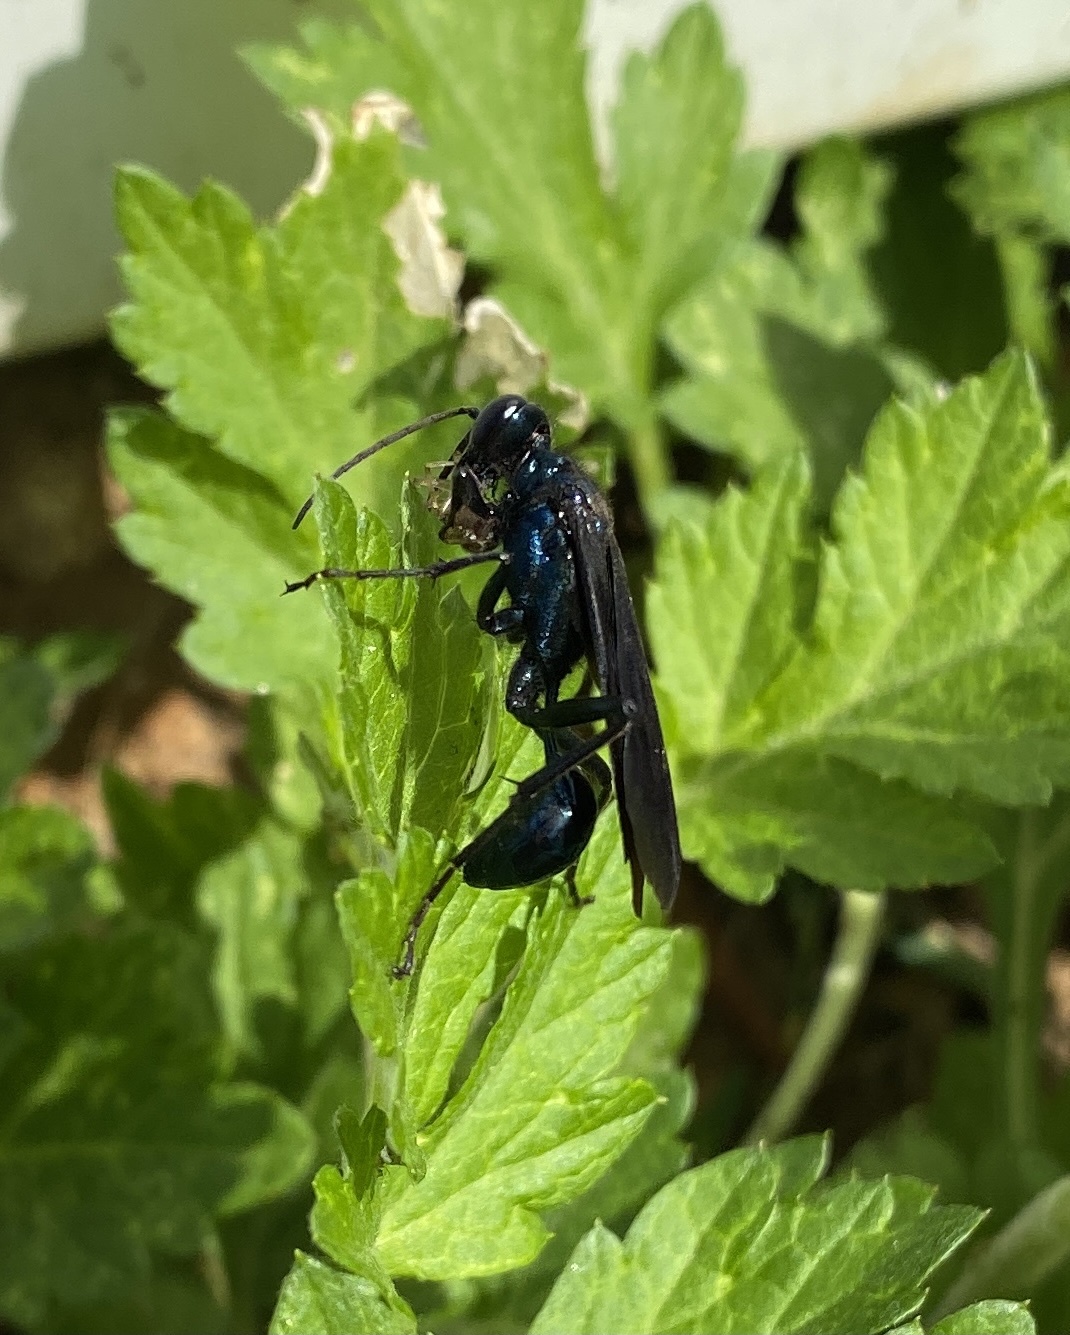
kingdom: Animalia
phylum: Arthropoda
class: Insecta
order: Hymenoptera
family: Sphecidae
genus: Chalybion
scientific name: Chalybion californicum
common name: Mud dauber
